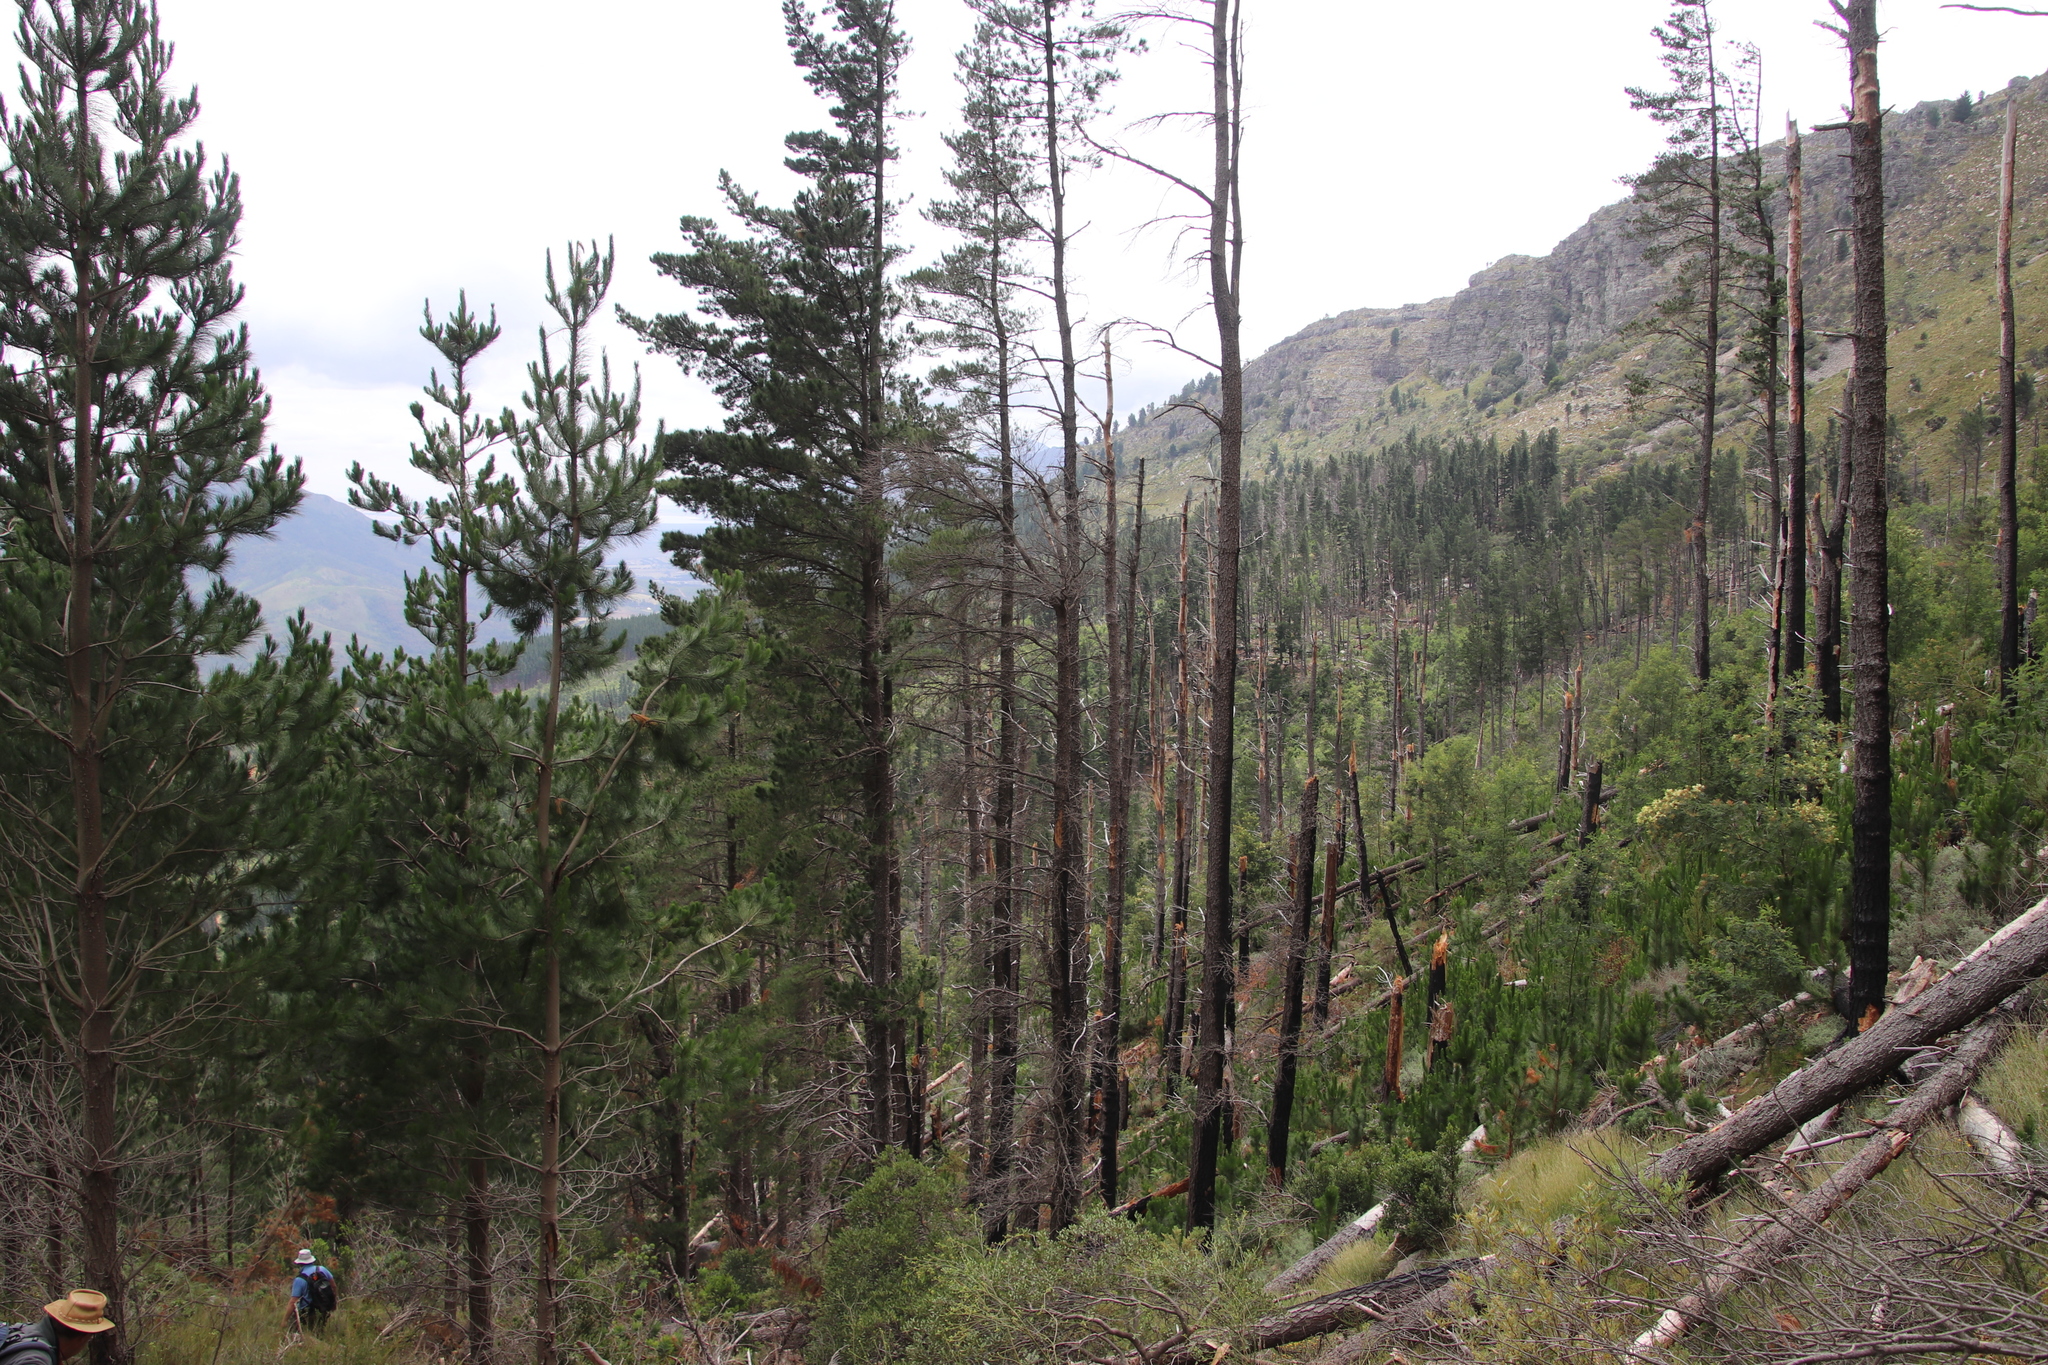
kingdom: Plantae
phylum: Tracheophyta
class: Pinopsida
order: Pinales
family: Pinaceae
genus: Pinus
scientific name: Pinus radiata
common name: Monterey pine
